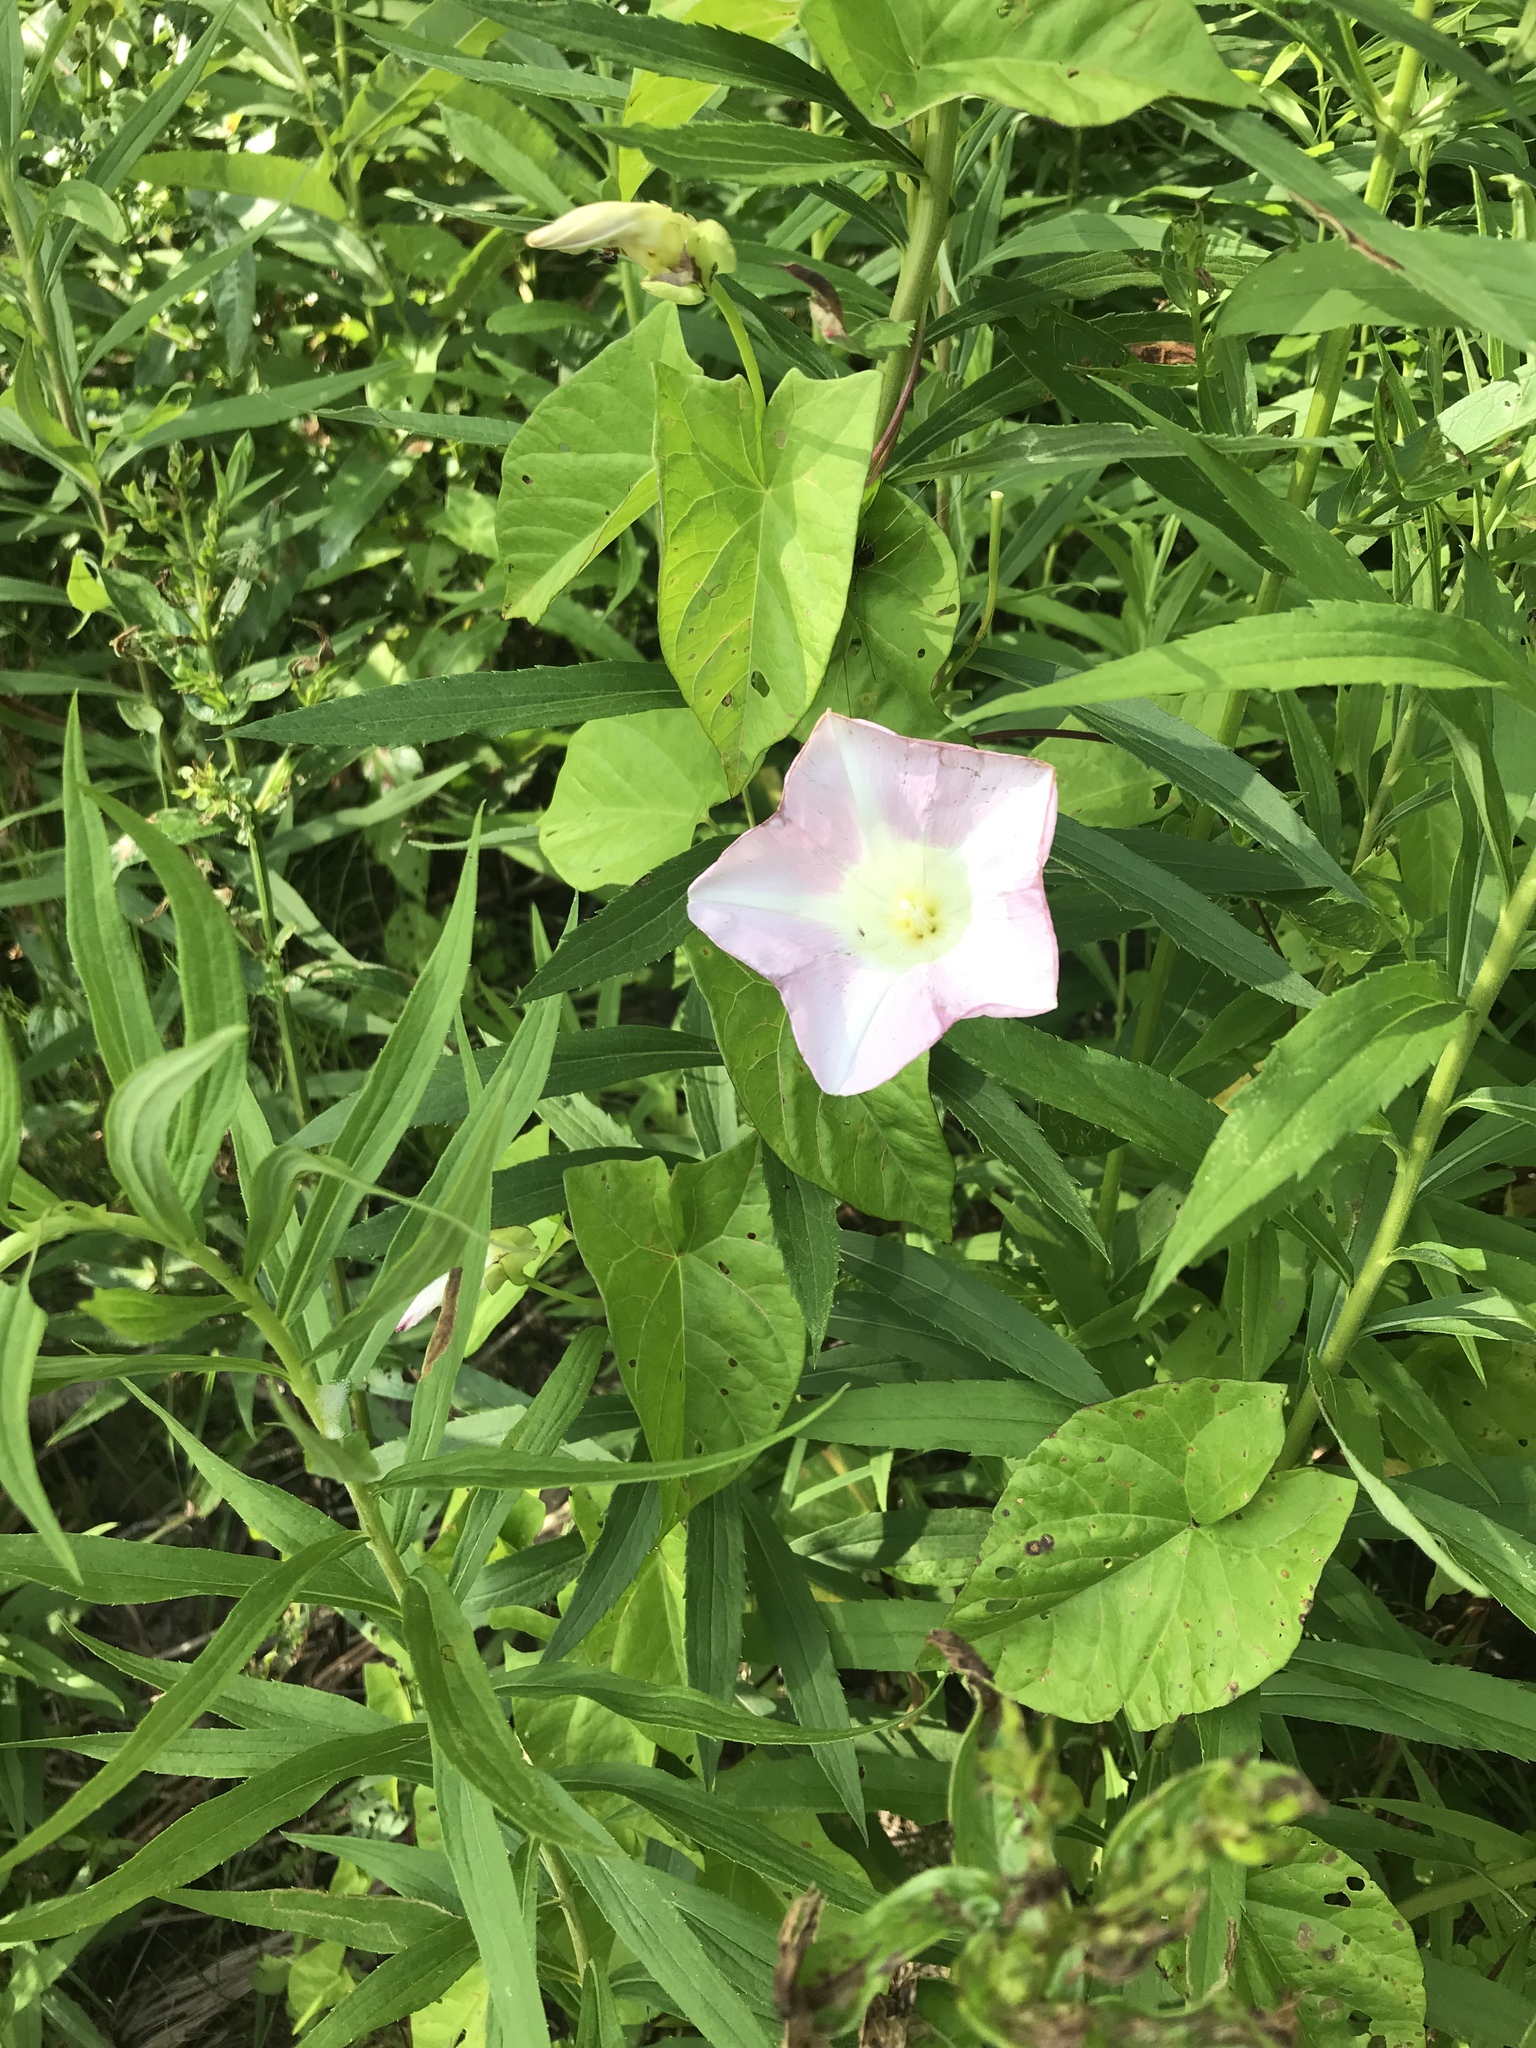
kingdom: Plantae
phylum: Tracheophyta
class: Magnoliopsida
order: Solanales
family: Convolvulaceae
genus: Calystegia
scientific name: Calystegia sepium
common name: Hedge bindweed
